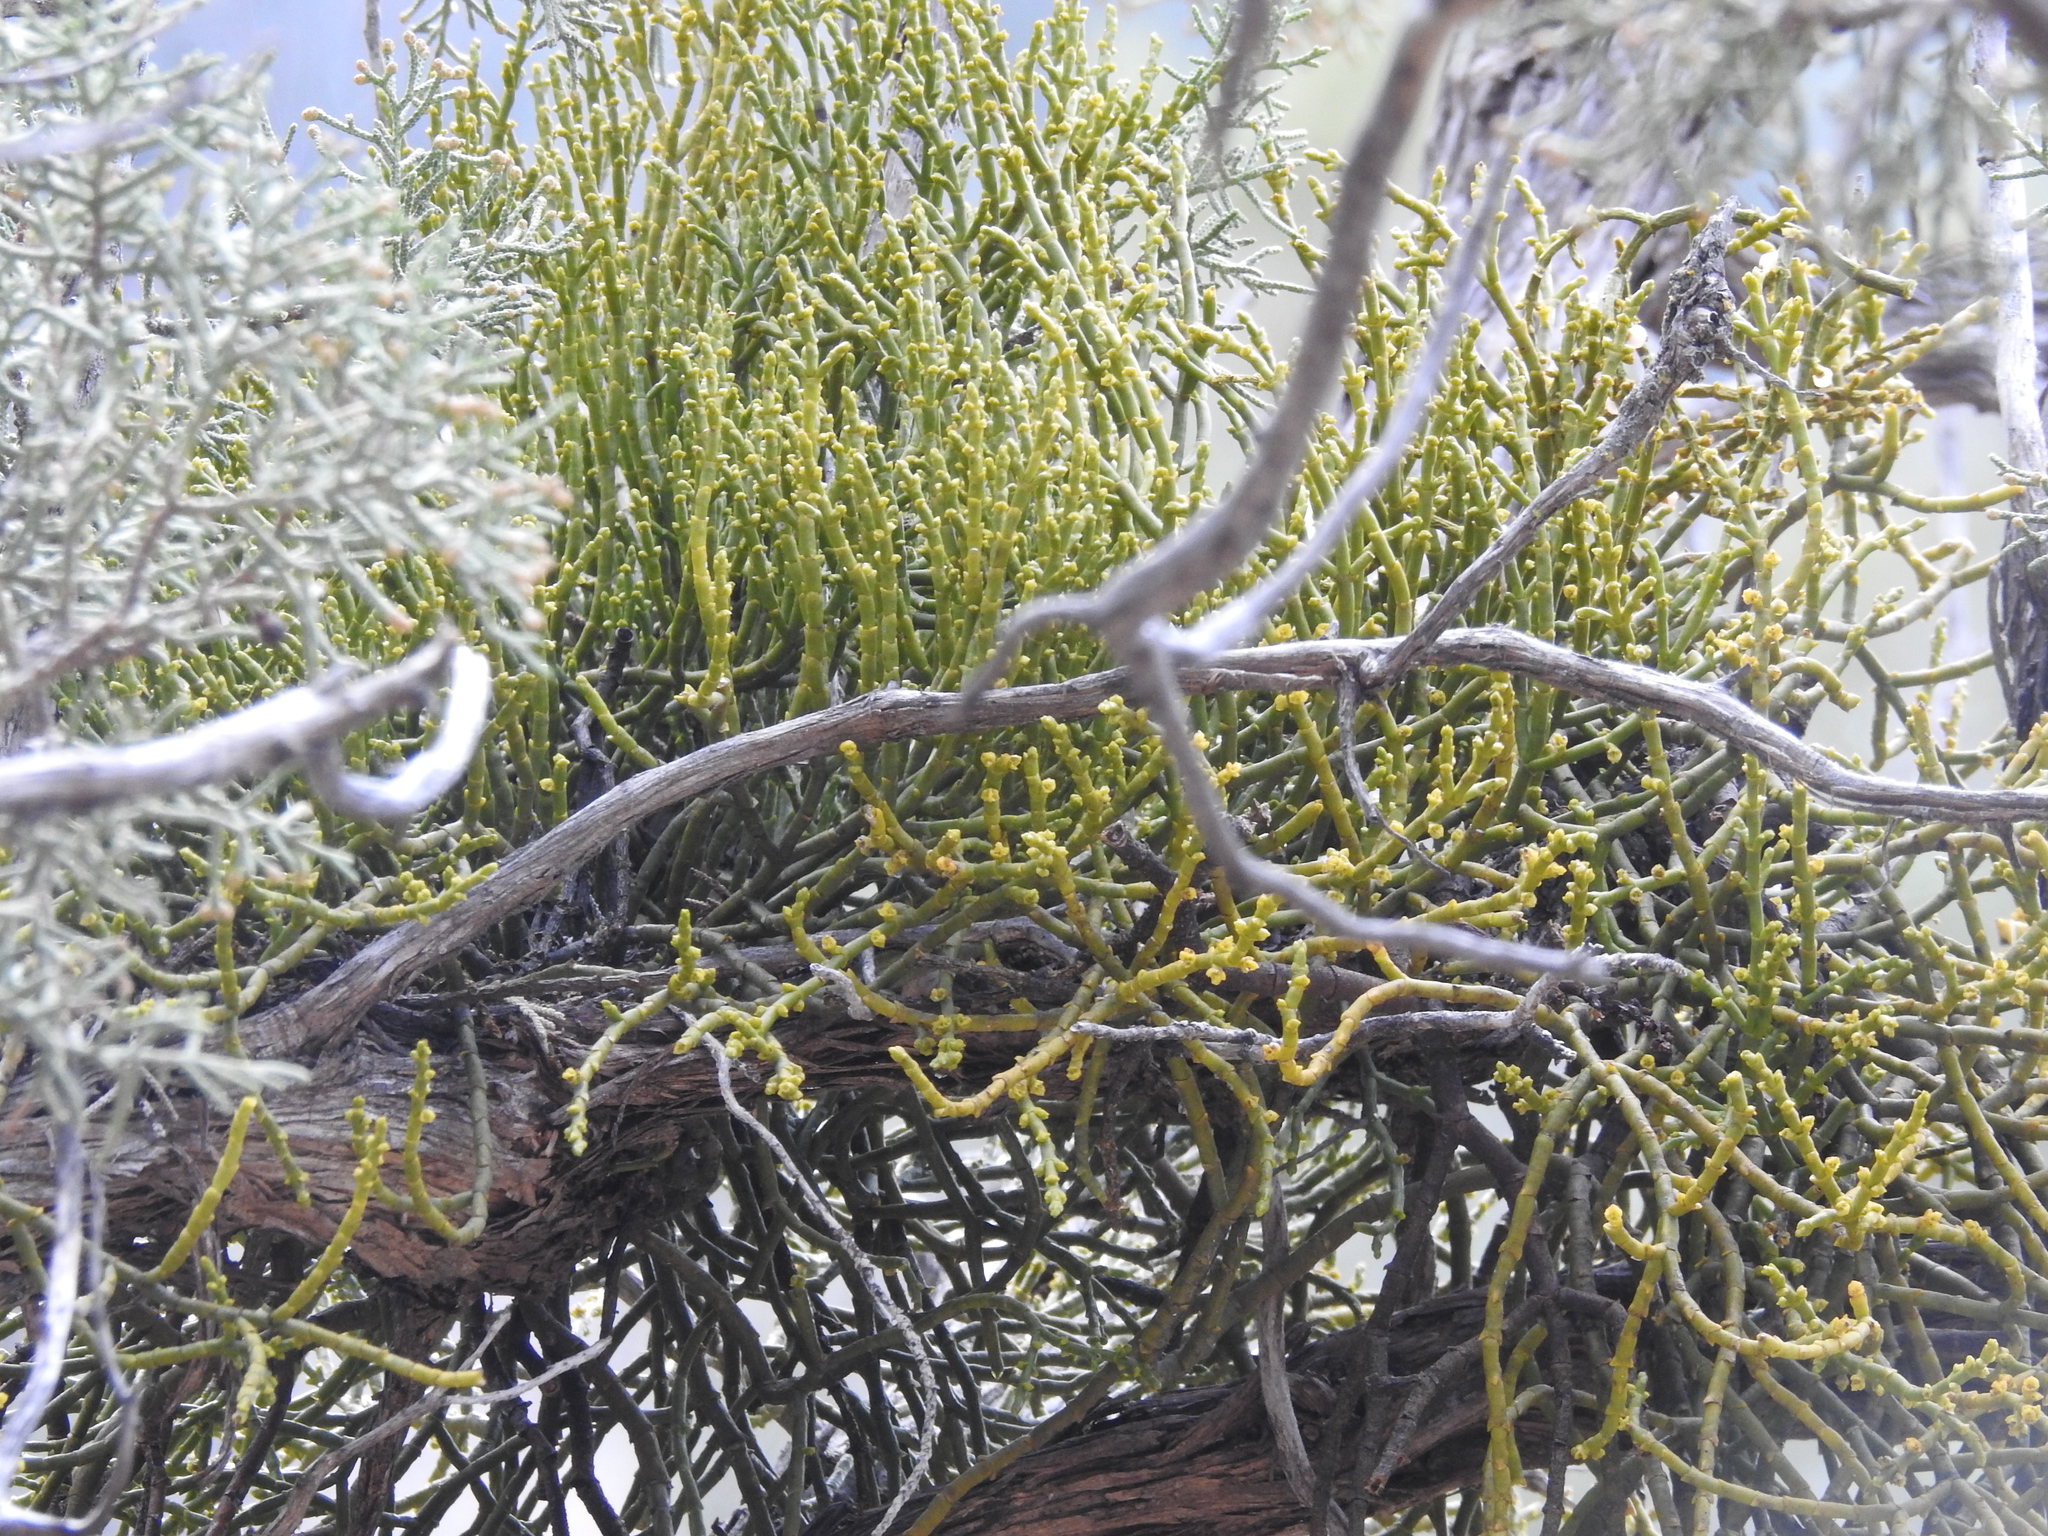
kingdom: Plantae
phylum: Tracheophyta
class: Magnoliopsida
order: Santalales
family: Viscaceae
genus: Phoradendron
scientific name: Phoradendron juniperinum
